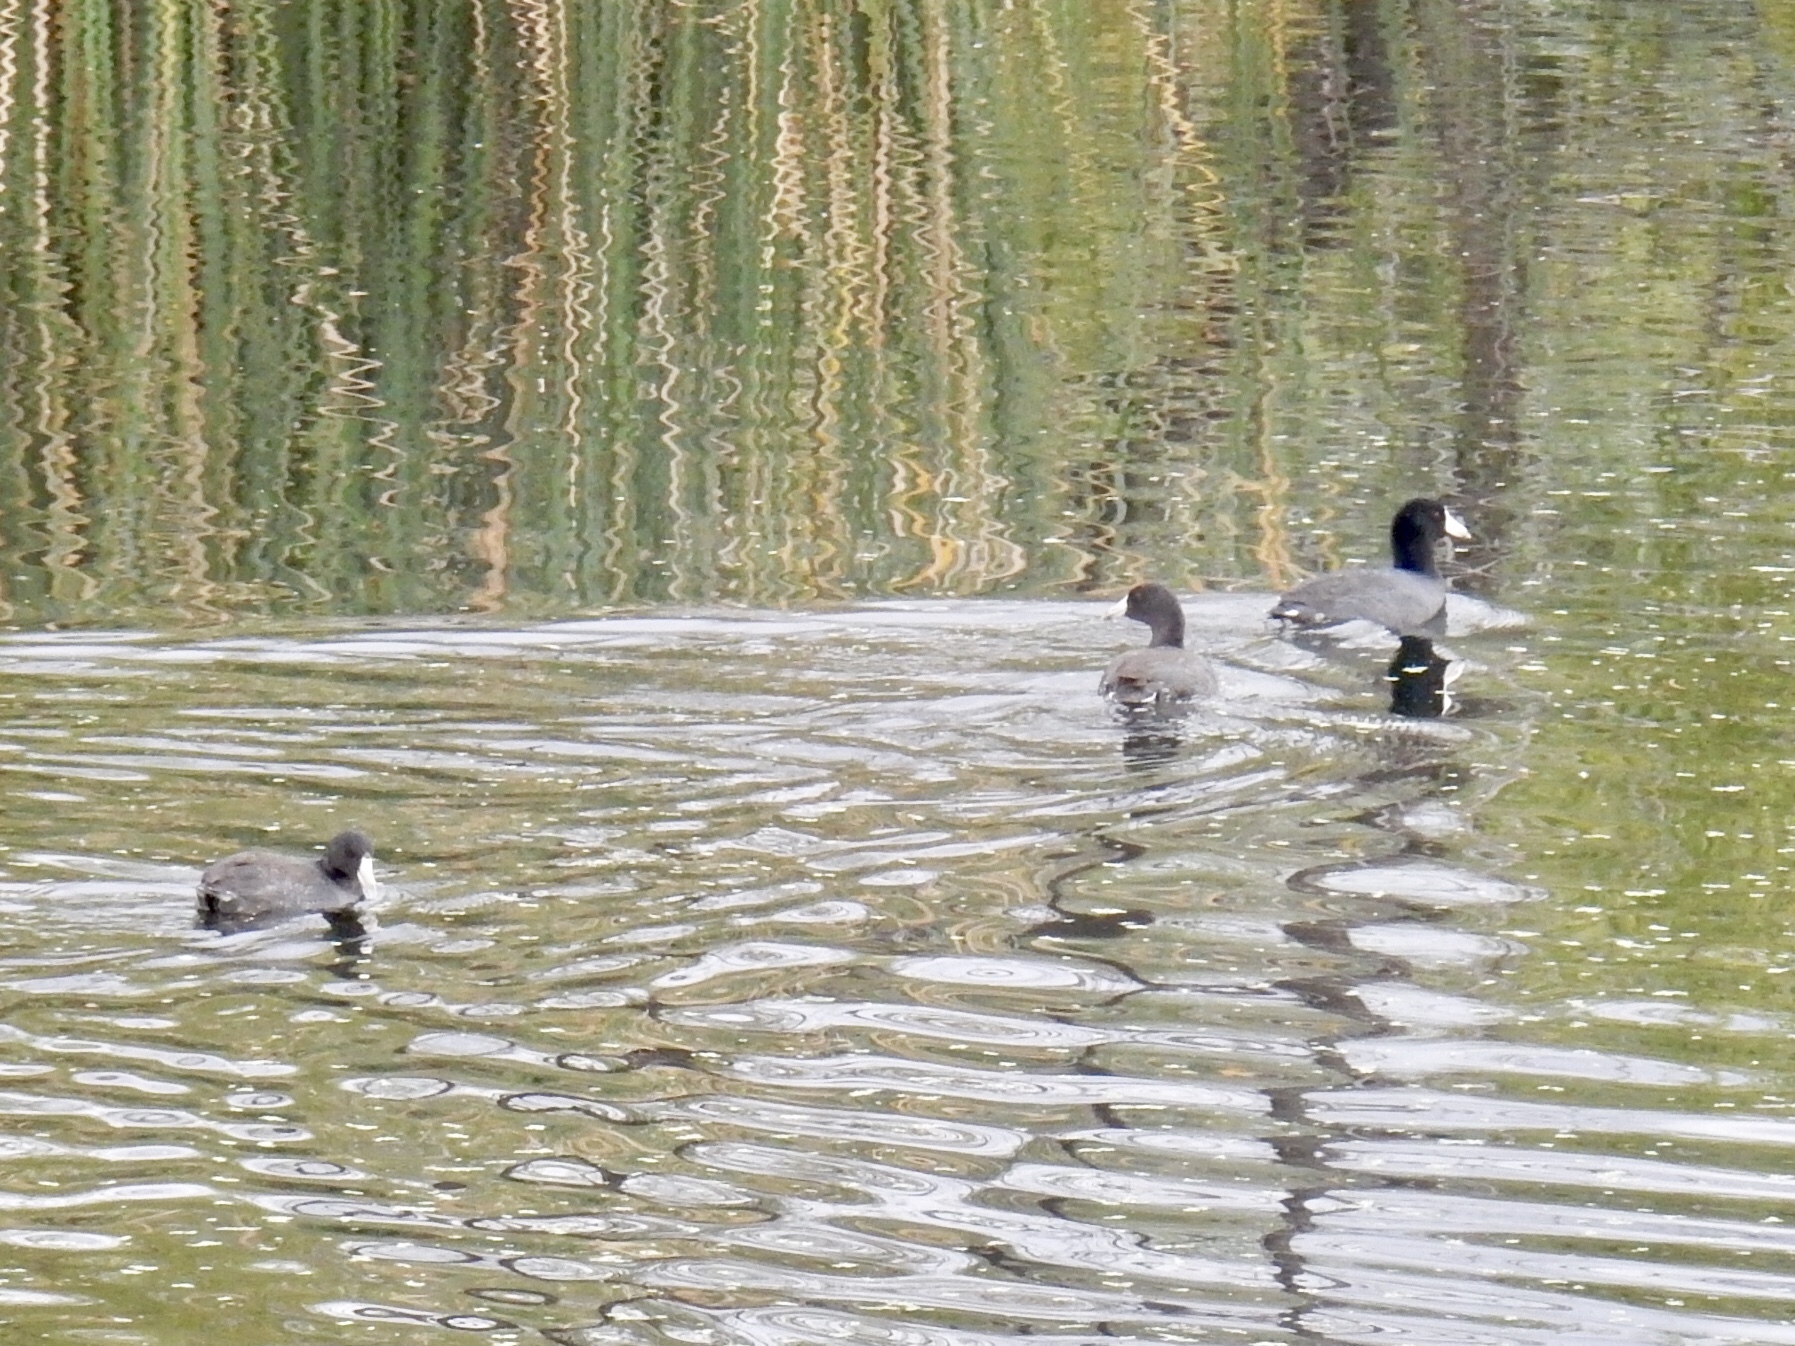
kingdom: Animalia
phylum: Chordata
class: Aves
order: Gruiformes
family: Rallidae
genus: Fulica
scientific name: Fulica americana
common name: American coot
